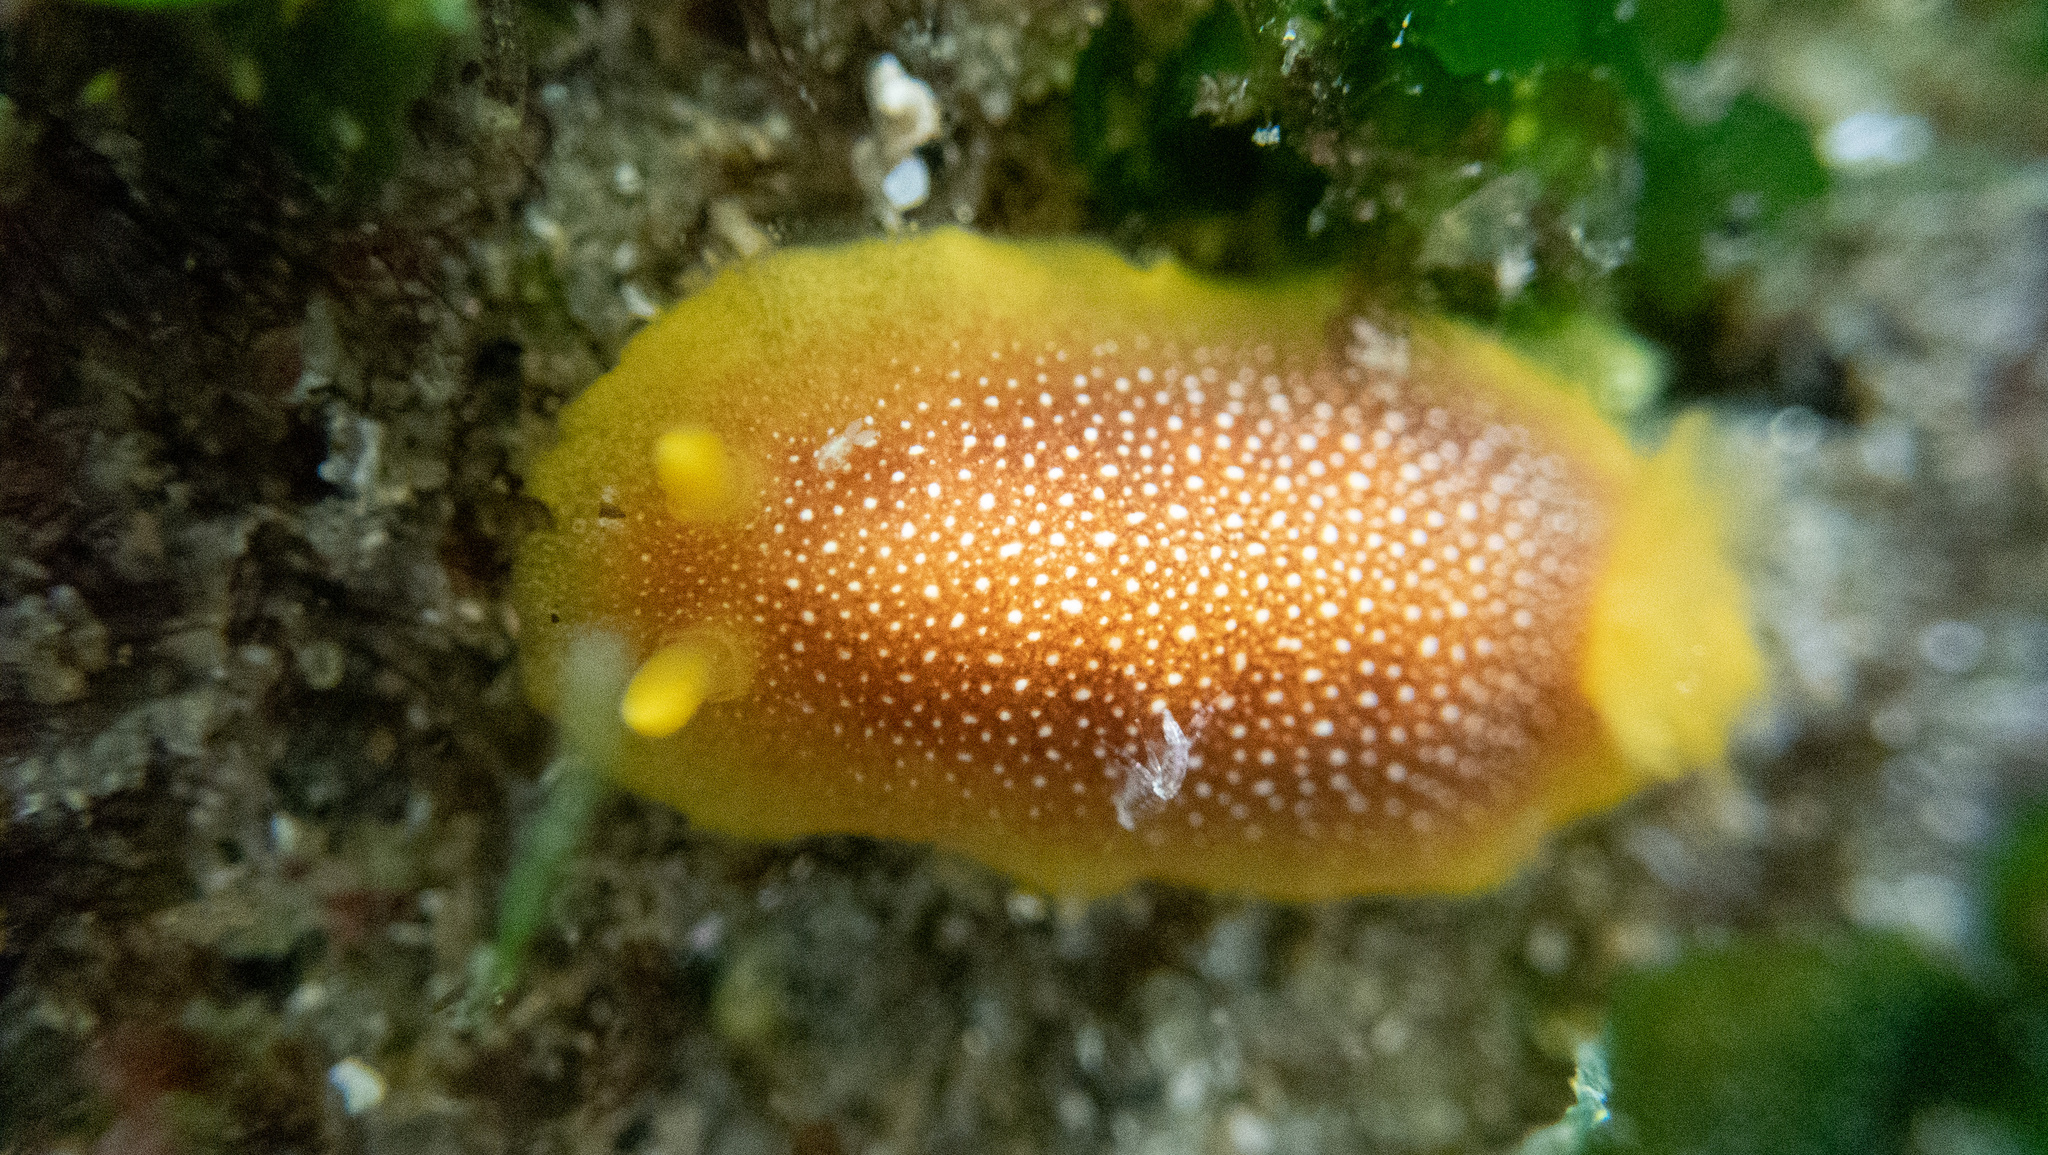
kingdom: Animalia
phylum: Mollusca
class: Gastropoda
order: Nudibranchia
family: Dendrodorididae
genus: Doriopsilla
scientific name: Doriopsilla gemela
